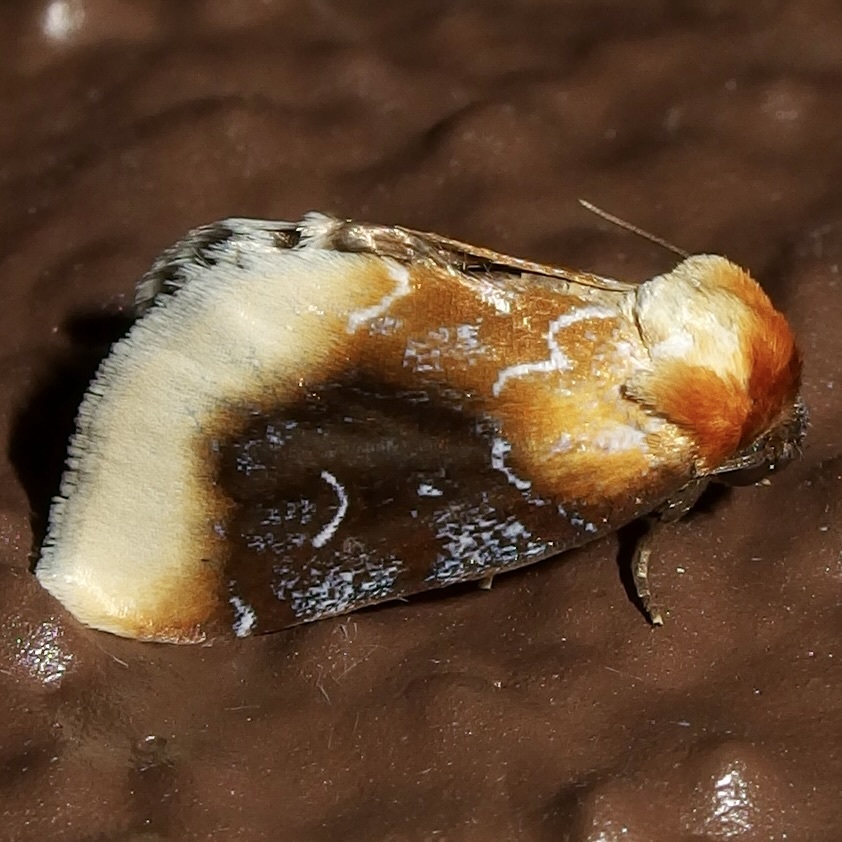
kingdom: Animalia
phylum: Arthropoda
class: Insecta
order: Lepidoptera
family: Noctuidae
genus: Chrysoecia
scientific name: Chrysoecia scira
